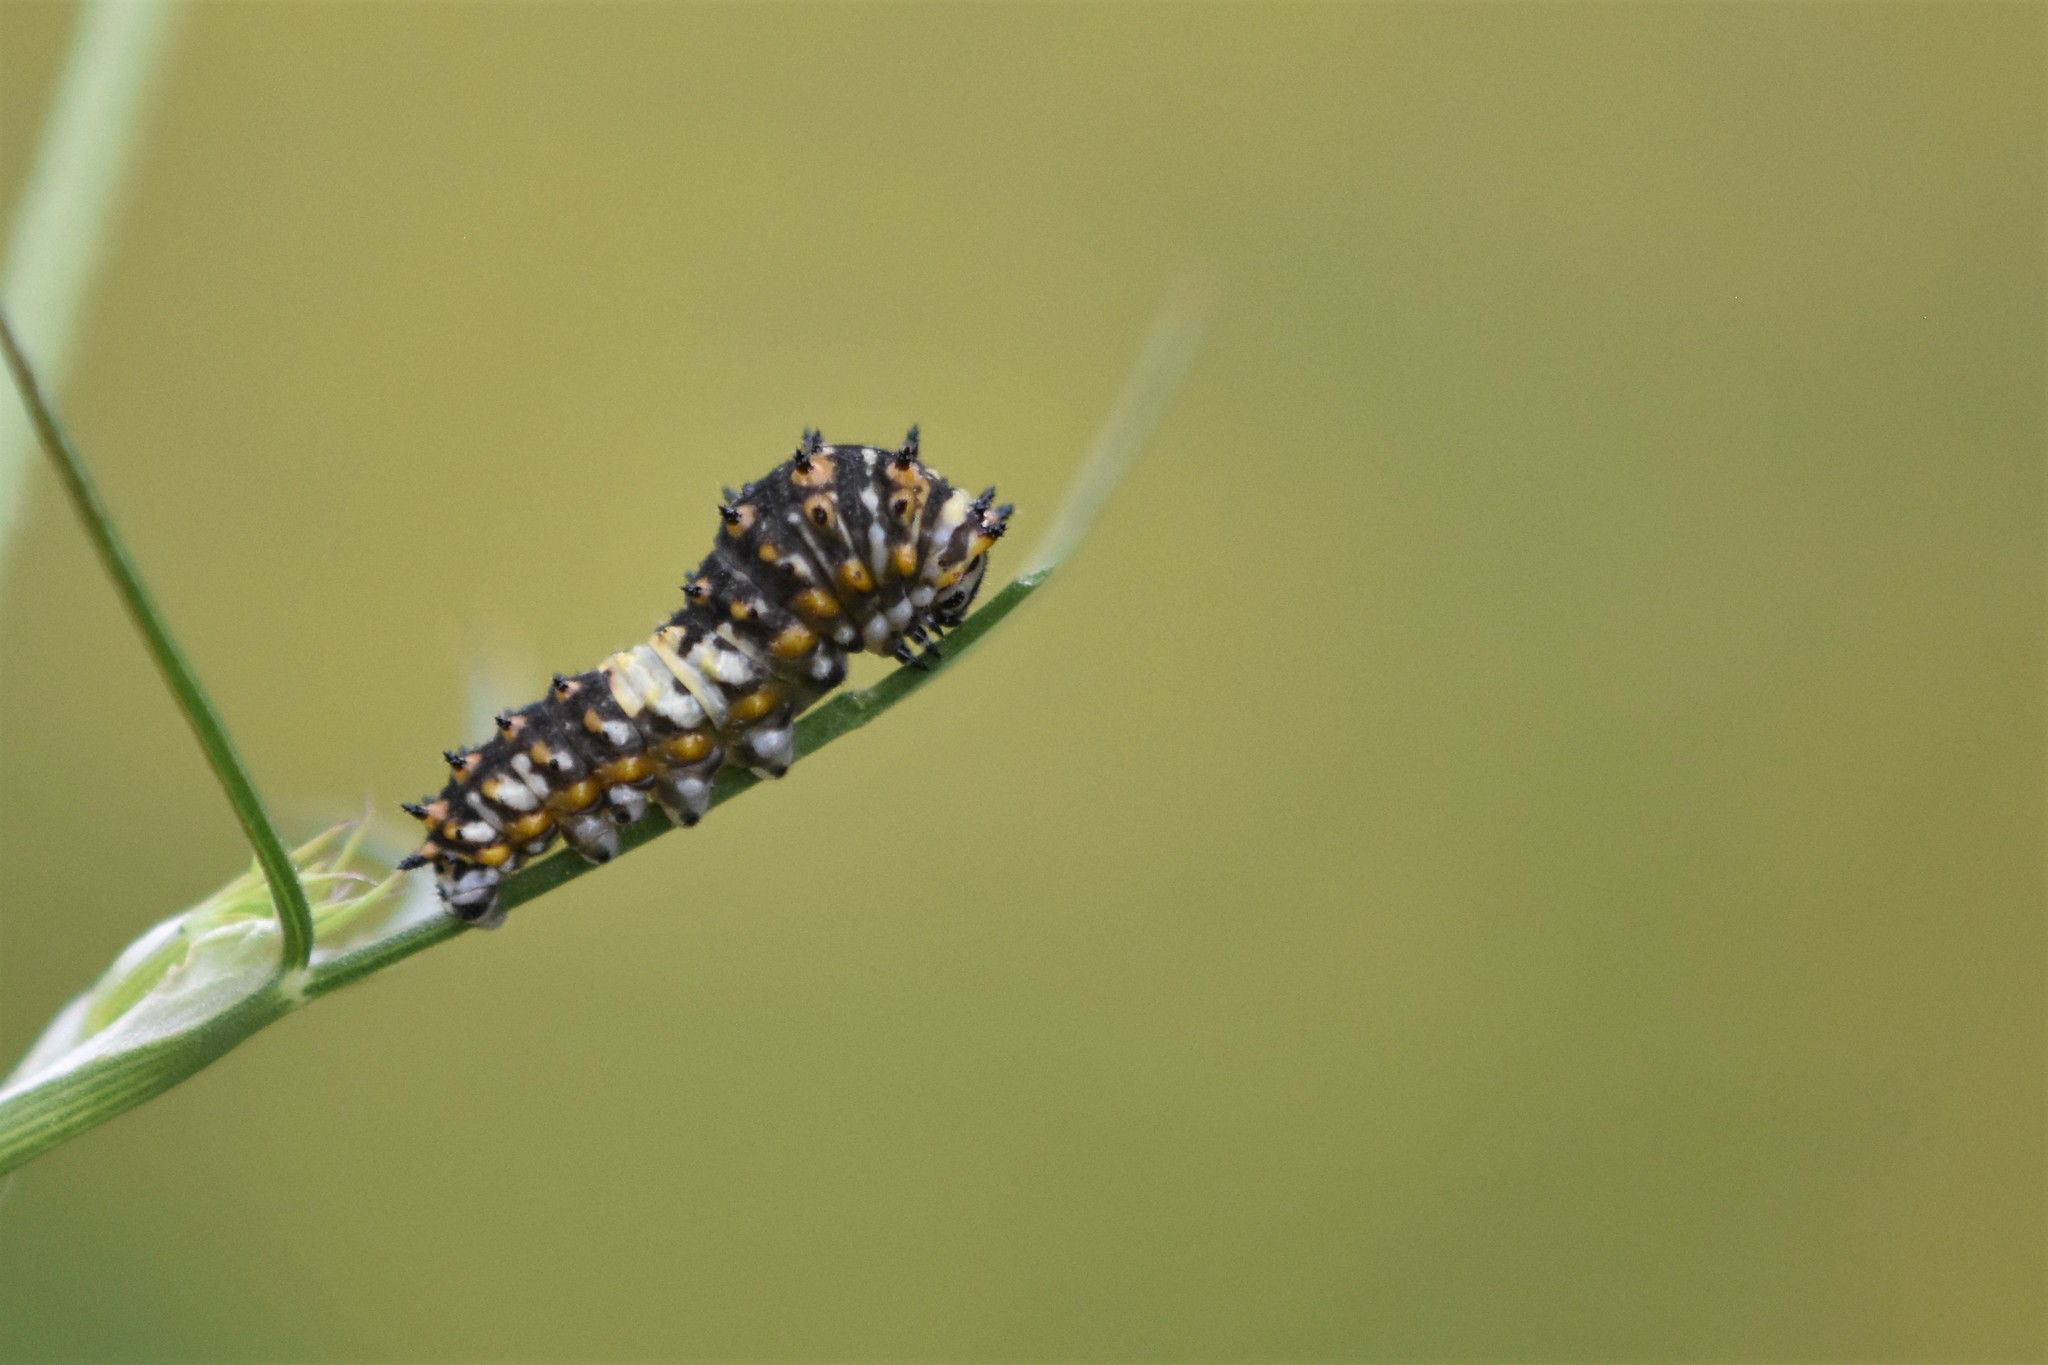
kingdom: Animalia
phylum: Arthropoda
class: Insecta
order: Lepidoptera
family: Papilionidae
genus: Papilio
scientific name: Papilio polyxenes
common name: Black swallowtail
